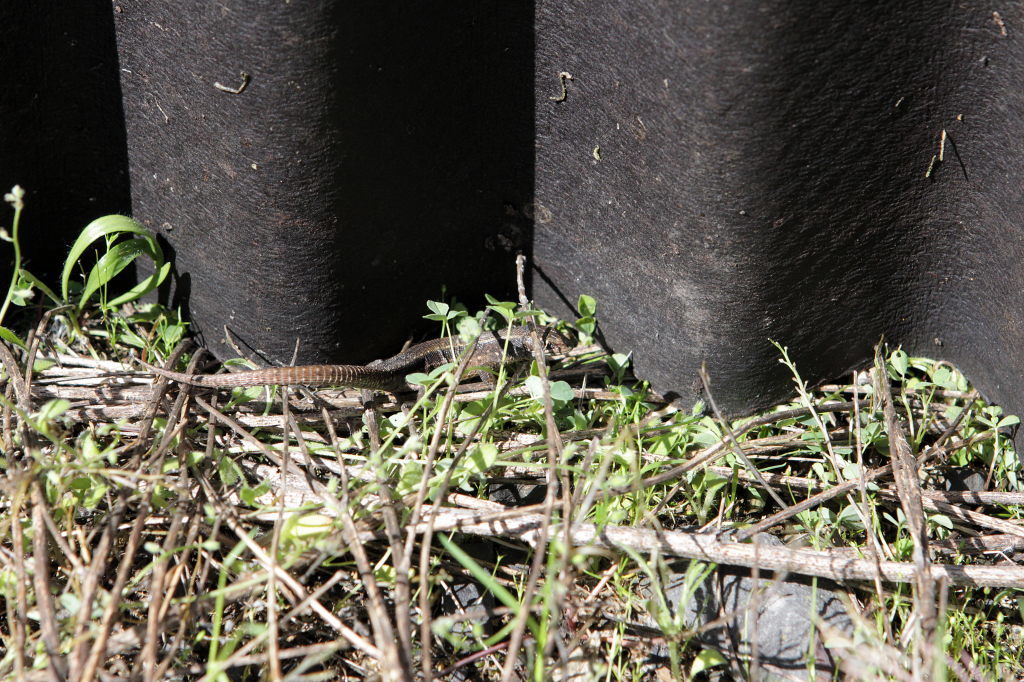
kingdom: Animalia
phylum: Chordata
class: Squamata
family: Lacertidae
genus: Zootoca
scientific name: Zootoca vivipara
